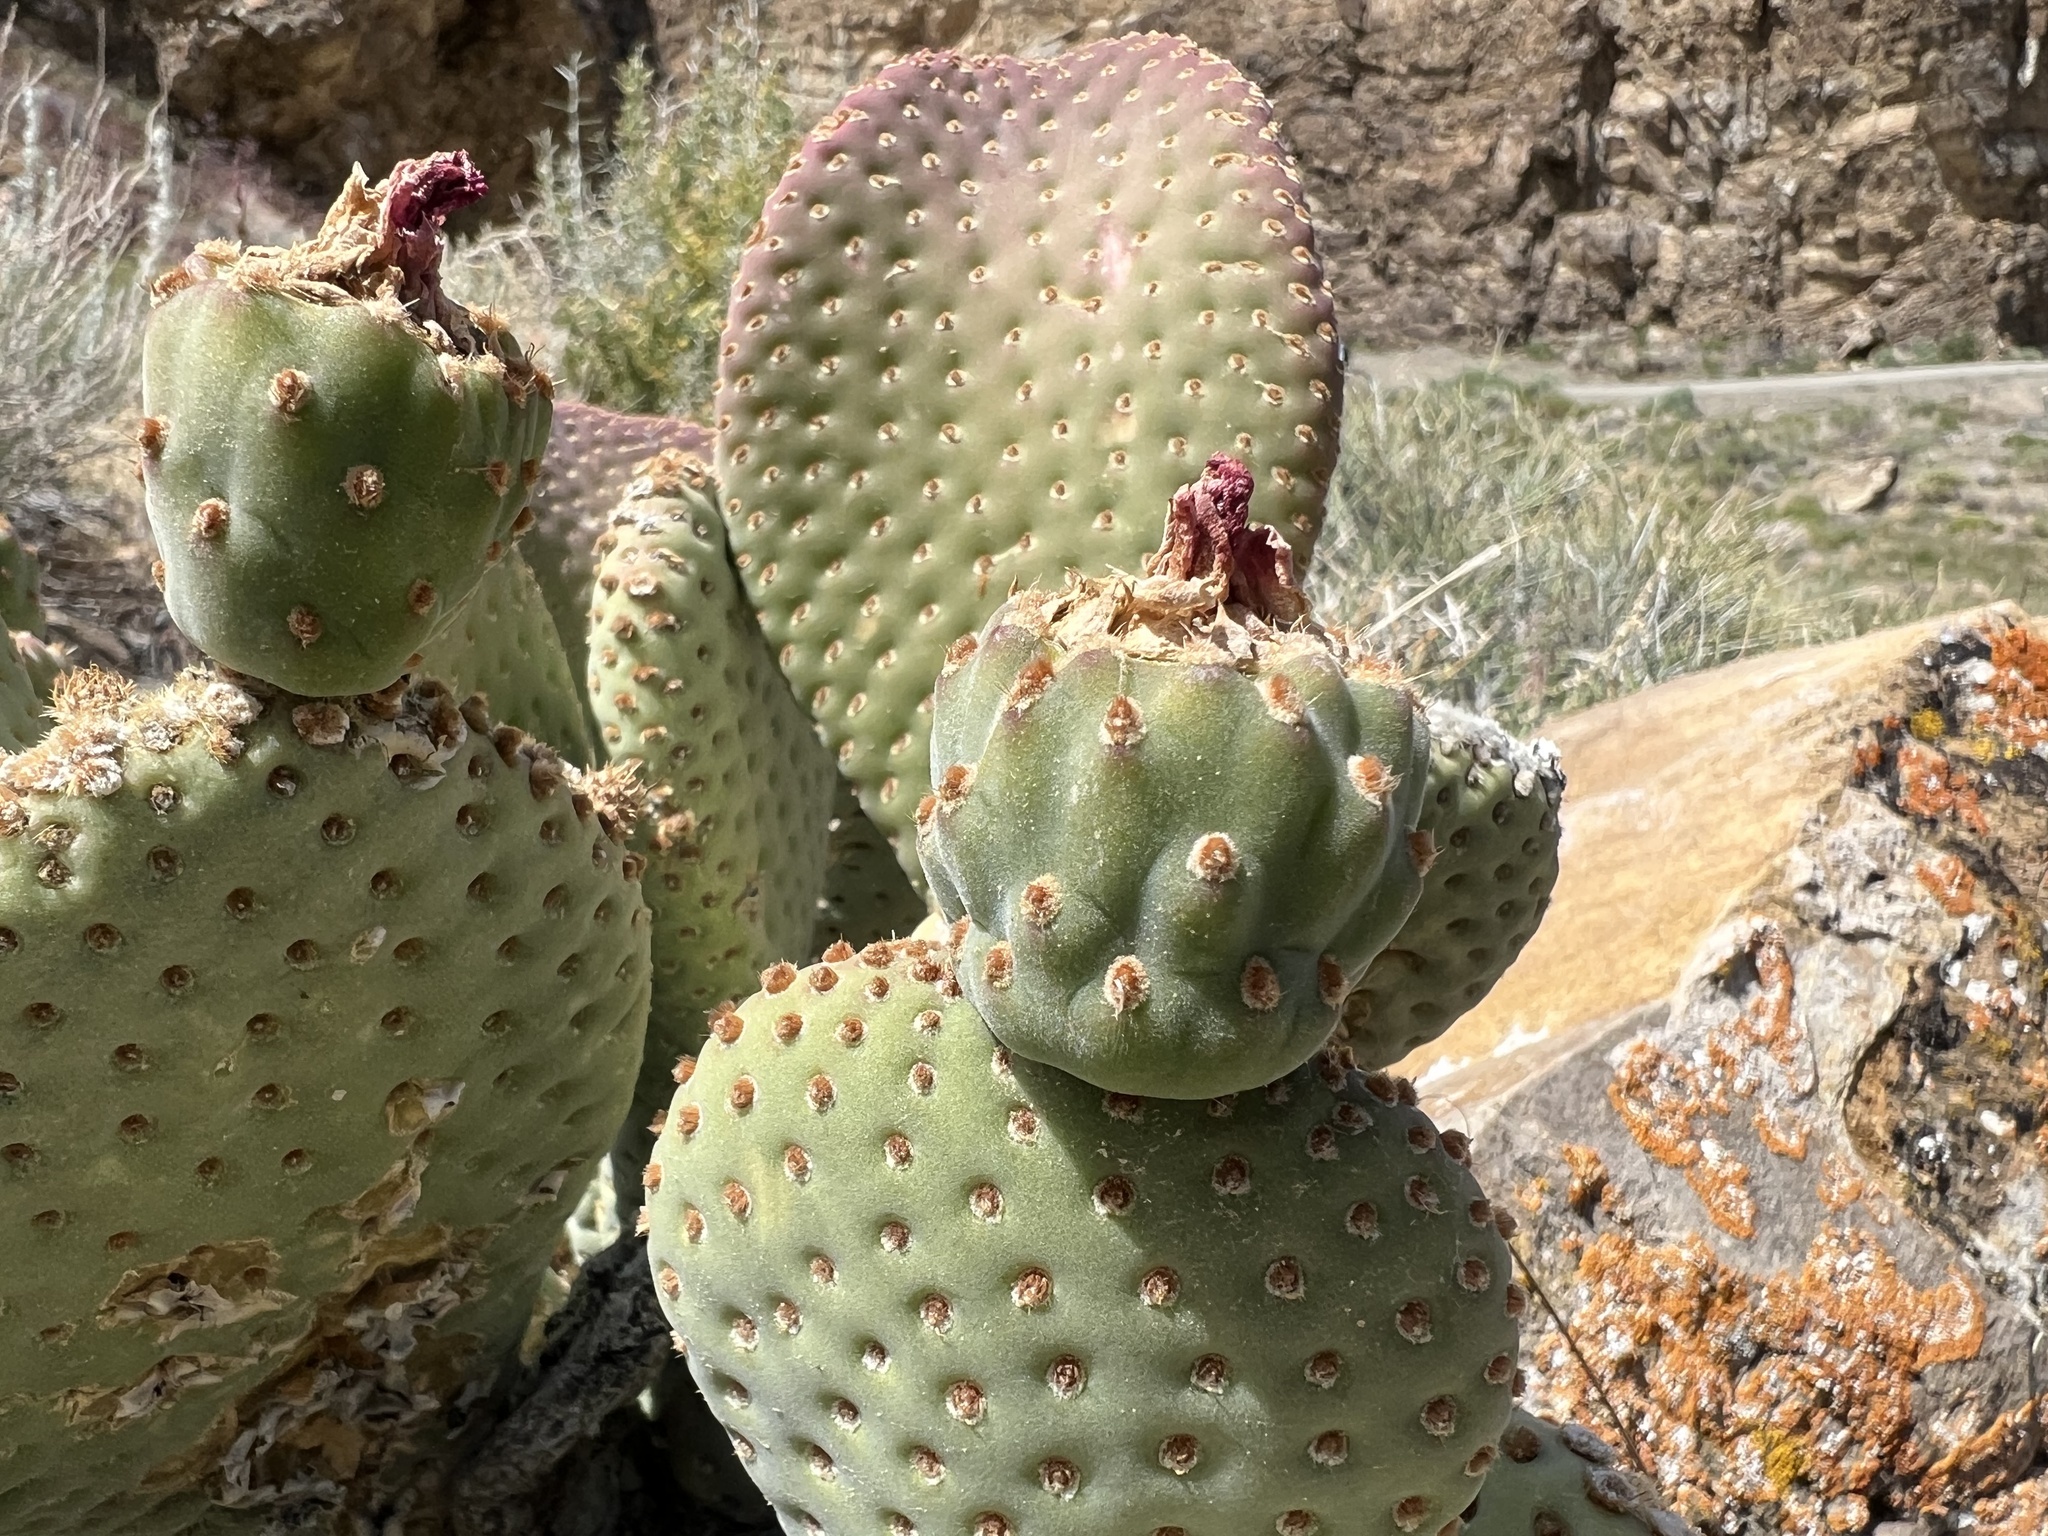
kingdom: Plantae
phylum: Tracheophyta
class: Magnoliopsida
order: Caryophyllales
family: Cactaceae
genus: Opuntia
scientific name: Opuntia basilaris
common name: Beavertail prickly-pear
